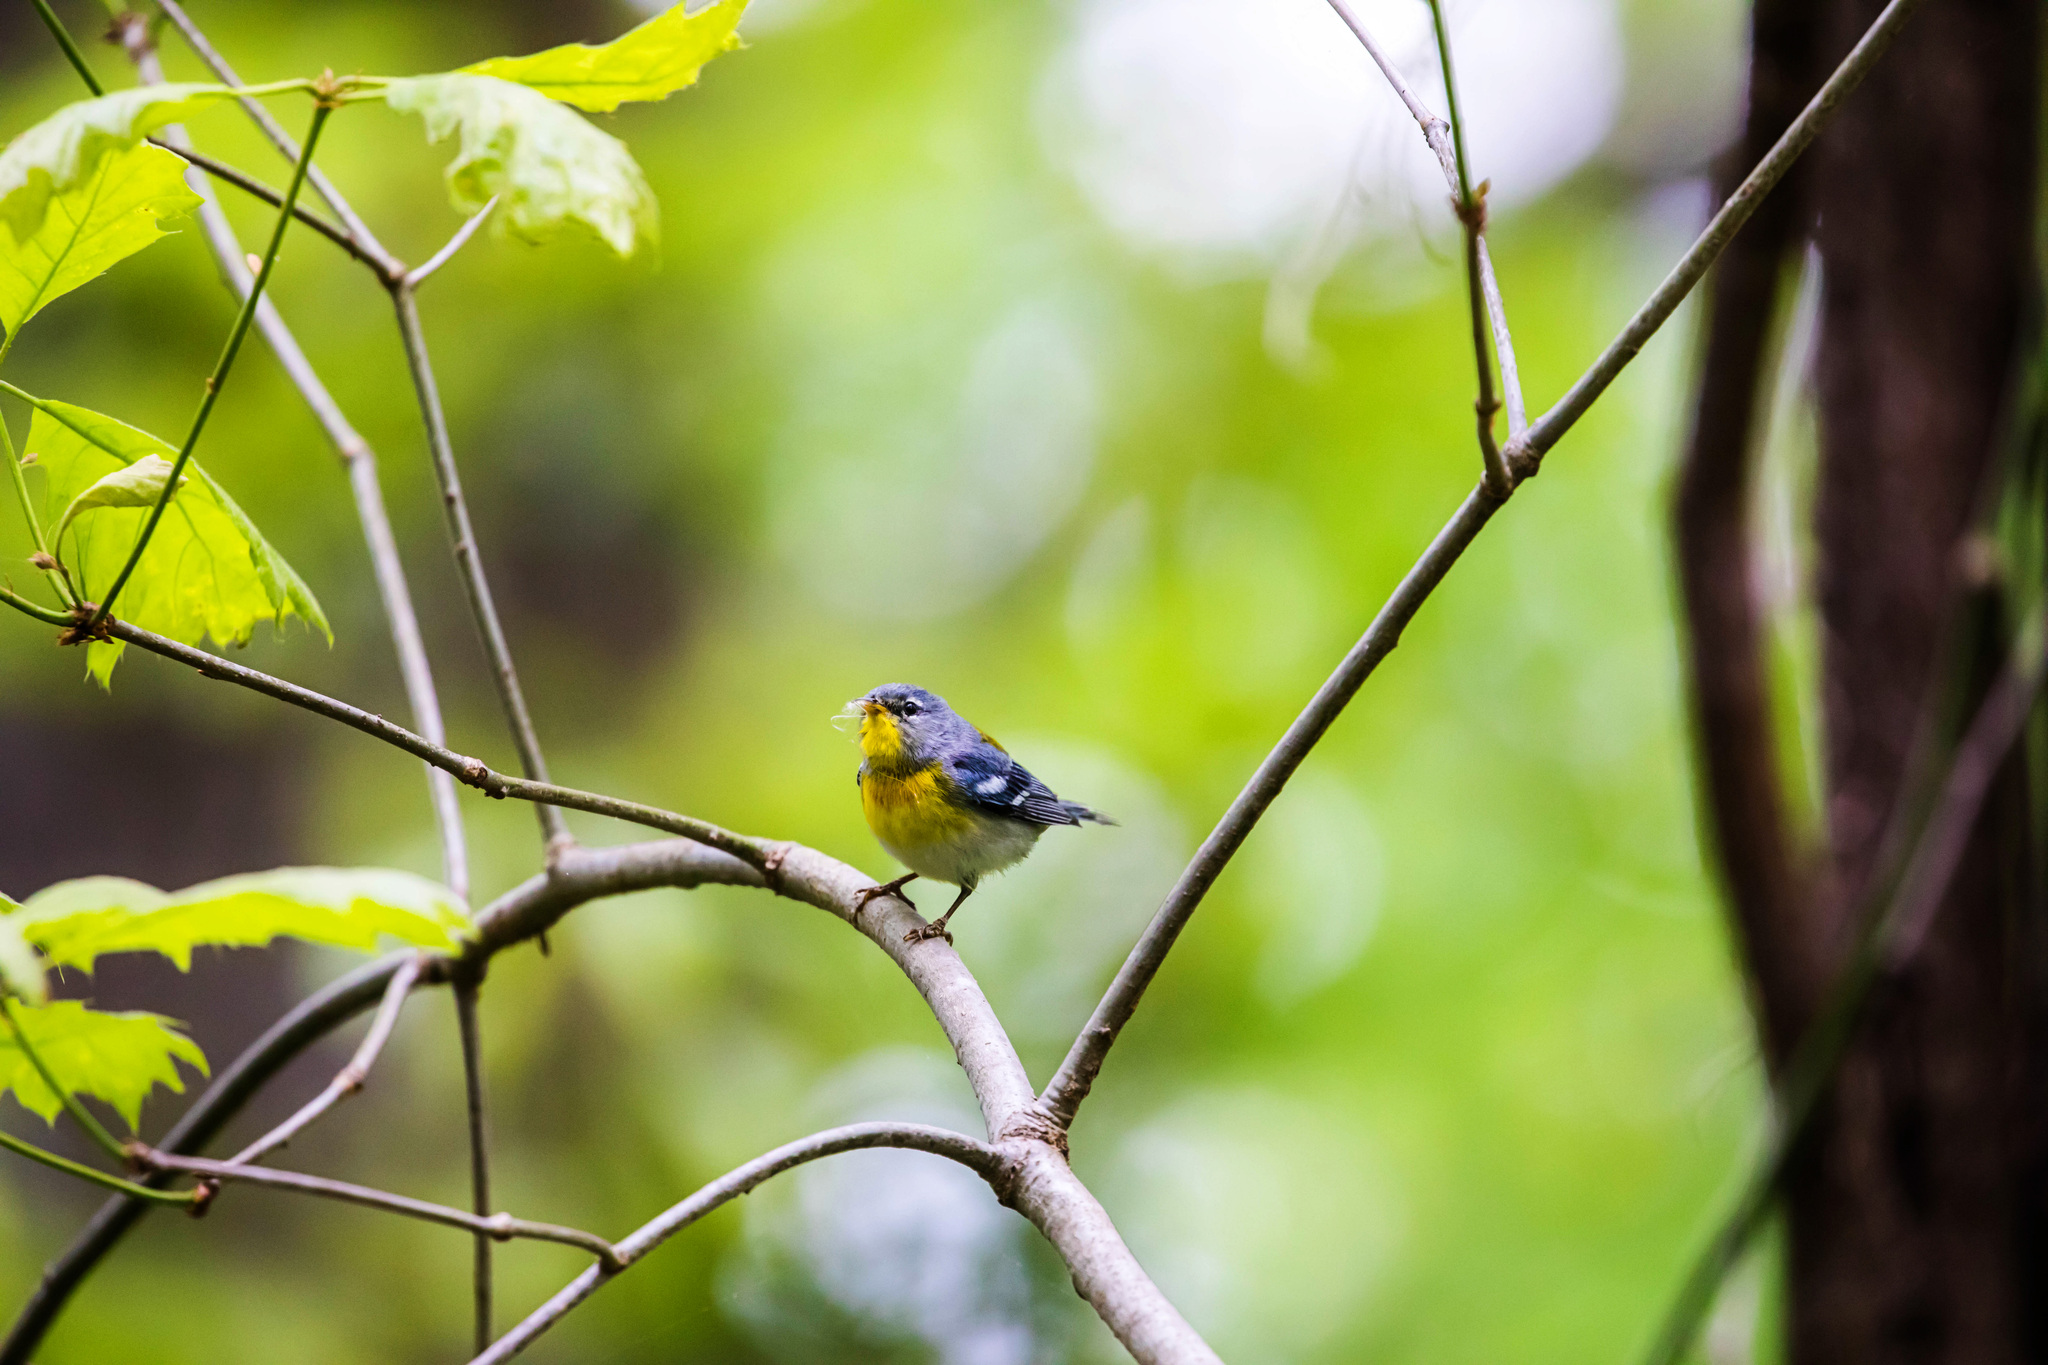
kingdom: Animalia
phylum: Chordata
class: Aves
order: Passeriformes
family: Parulidae
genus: Setophaga
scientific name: Setophaga americana
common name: Northern parula
